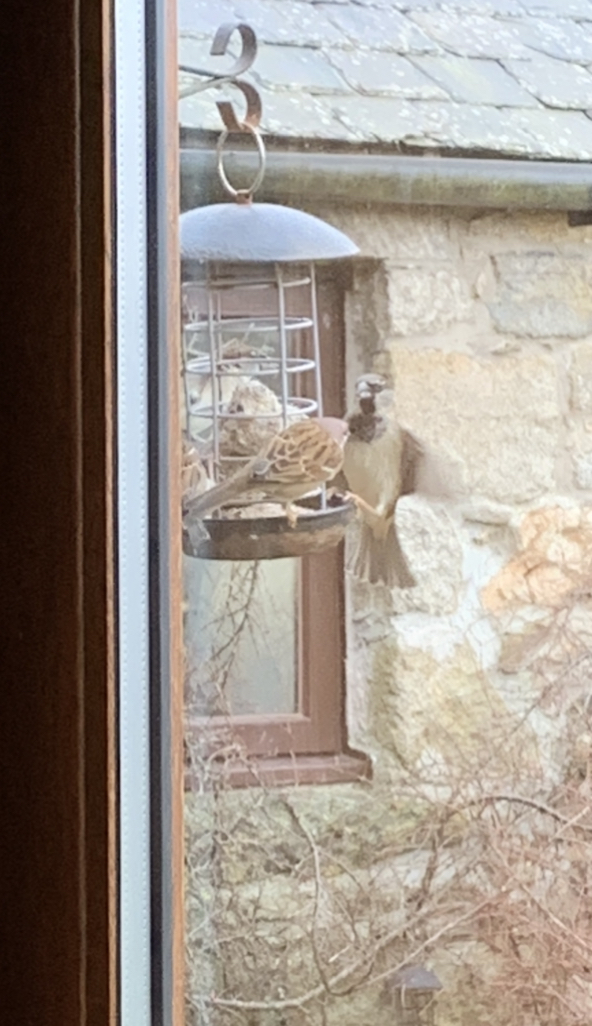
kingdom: Animalia
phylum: Chordata
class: Aves
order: Passeriformes
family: Passeridae
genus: Passer
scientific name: Passer domesticus
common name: House sparrow
